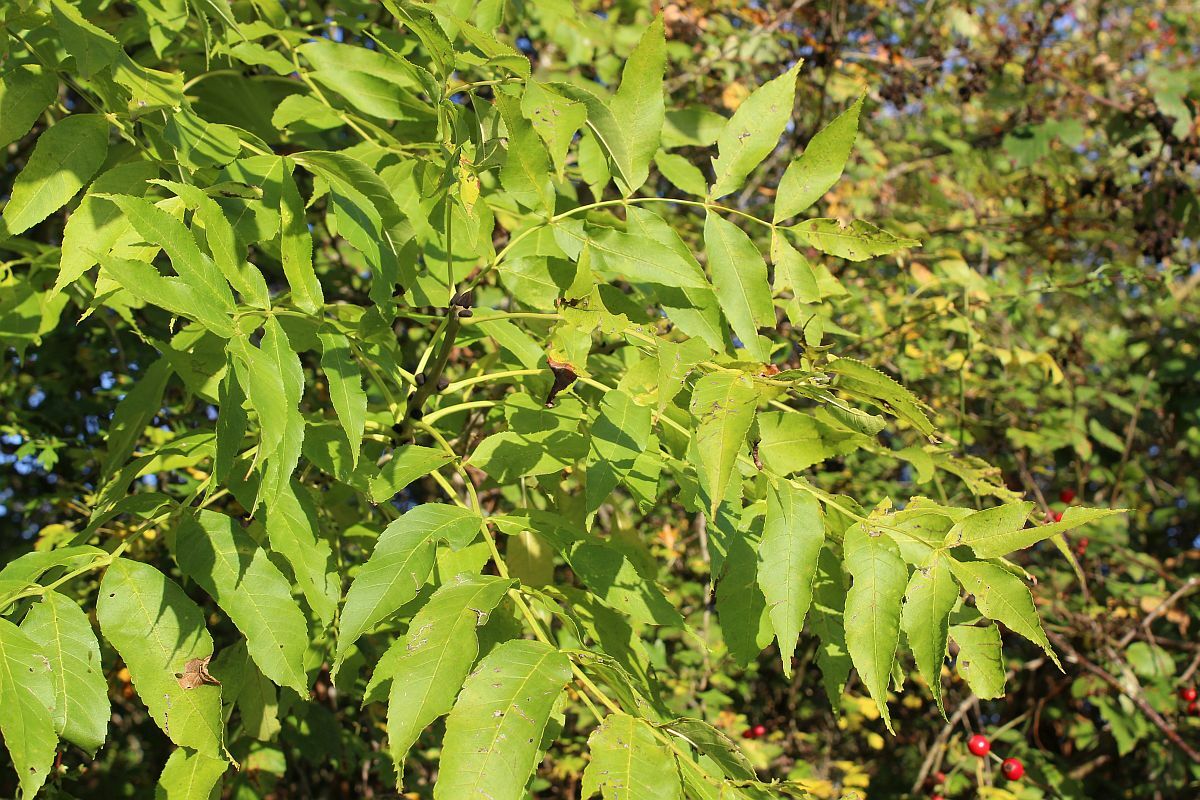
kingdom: Plantae
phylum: Tracheophyta
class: Magnoliopsida
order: Lamiales
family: Oleaceae
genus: Fraxinus
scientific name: Fraxinus excelsior
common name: European ash
